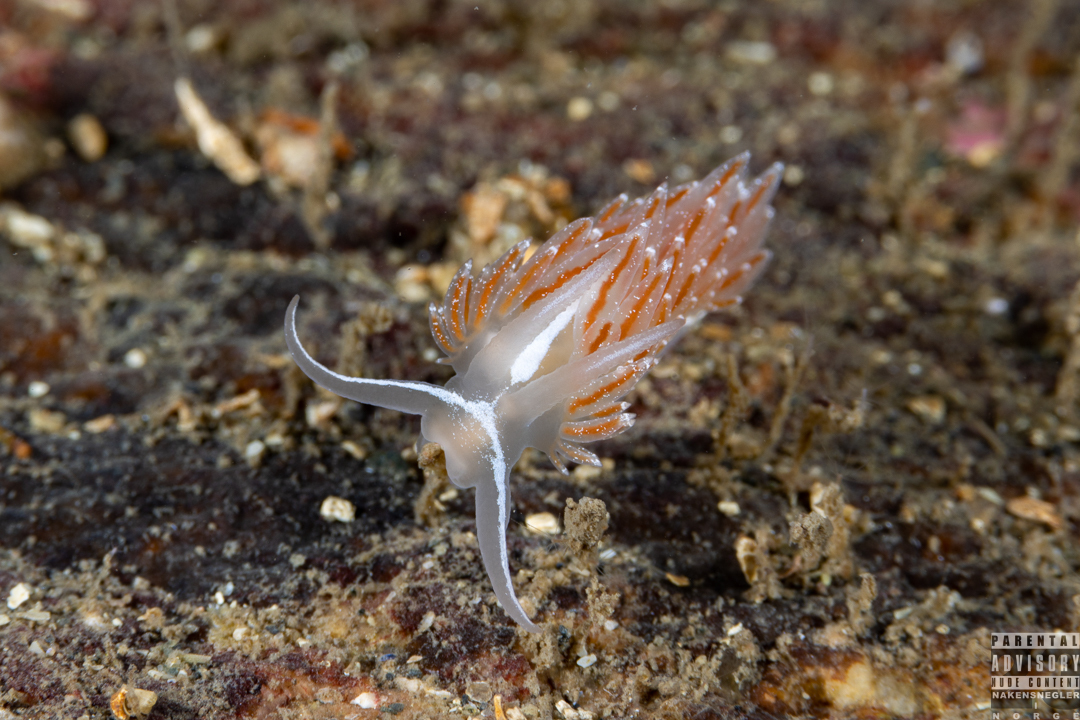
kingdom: Animalia
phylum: Mollusca
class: Gastropoda
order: Nudibranchia
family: Coryphellidae
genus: Coryphella
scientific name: Coryphella monicae
